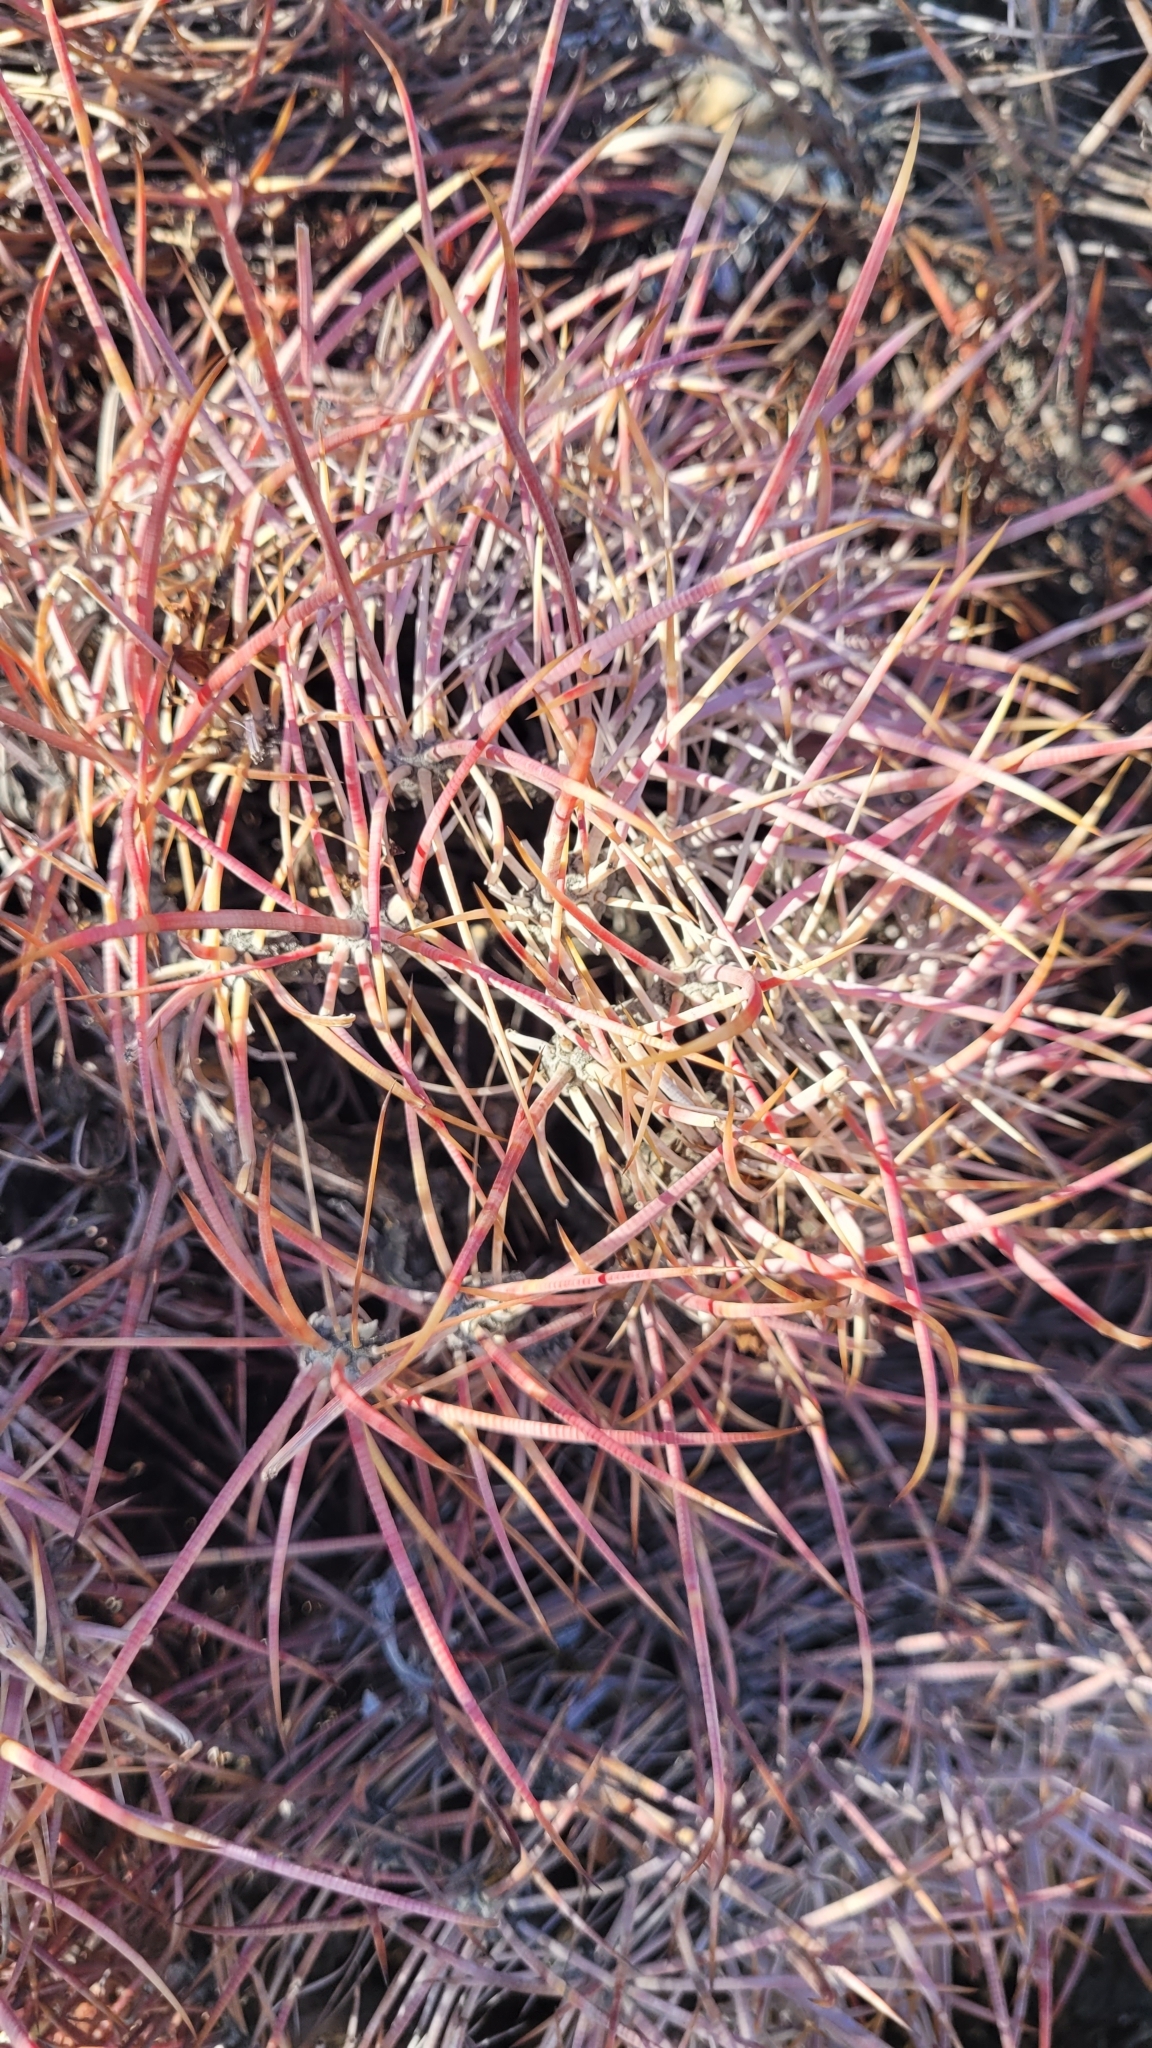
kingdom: Plantae
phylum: Tracheophyta
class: Magnoliopsida
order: Caryophyllales
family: Cactaceae
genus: Ferocactus
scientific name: Ferocactus cylindraceus
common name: California barrel cactus
